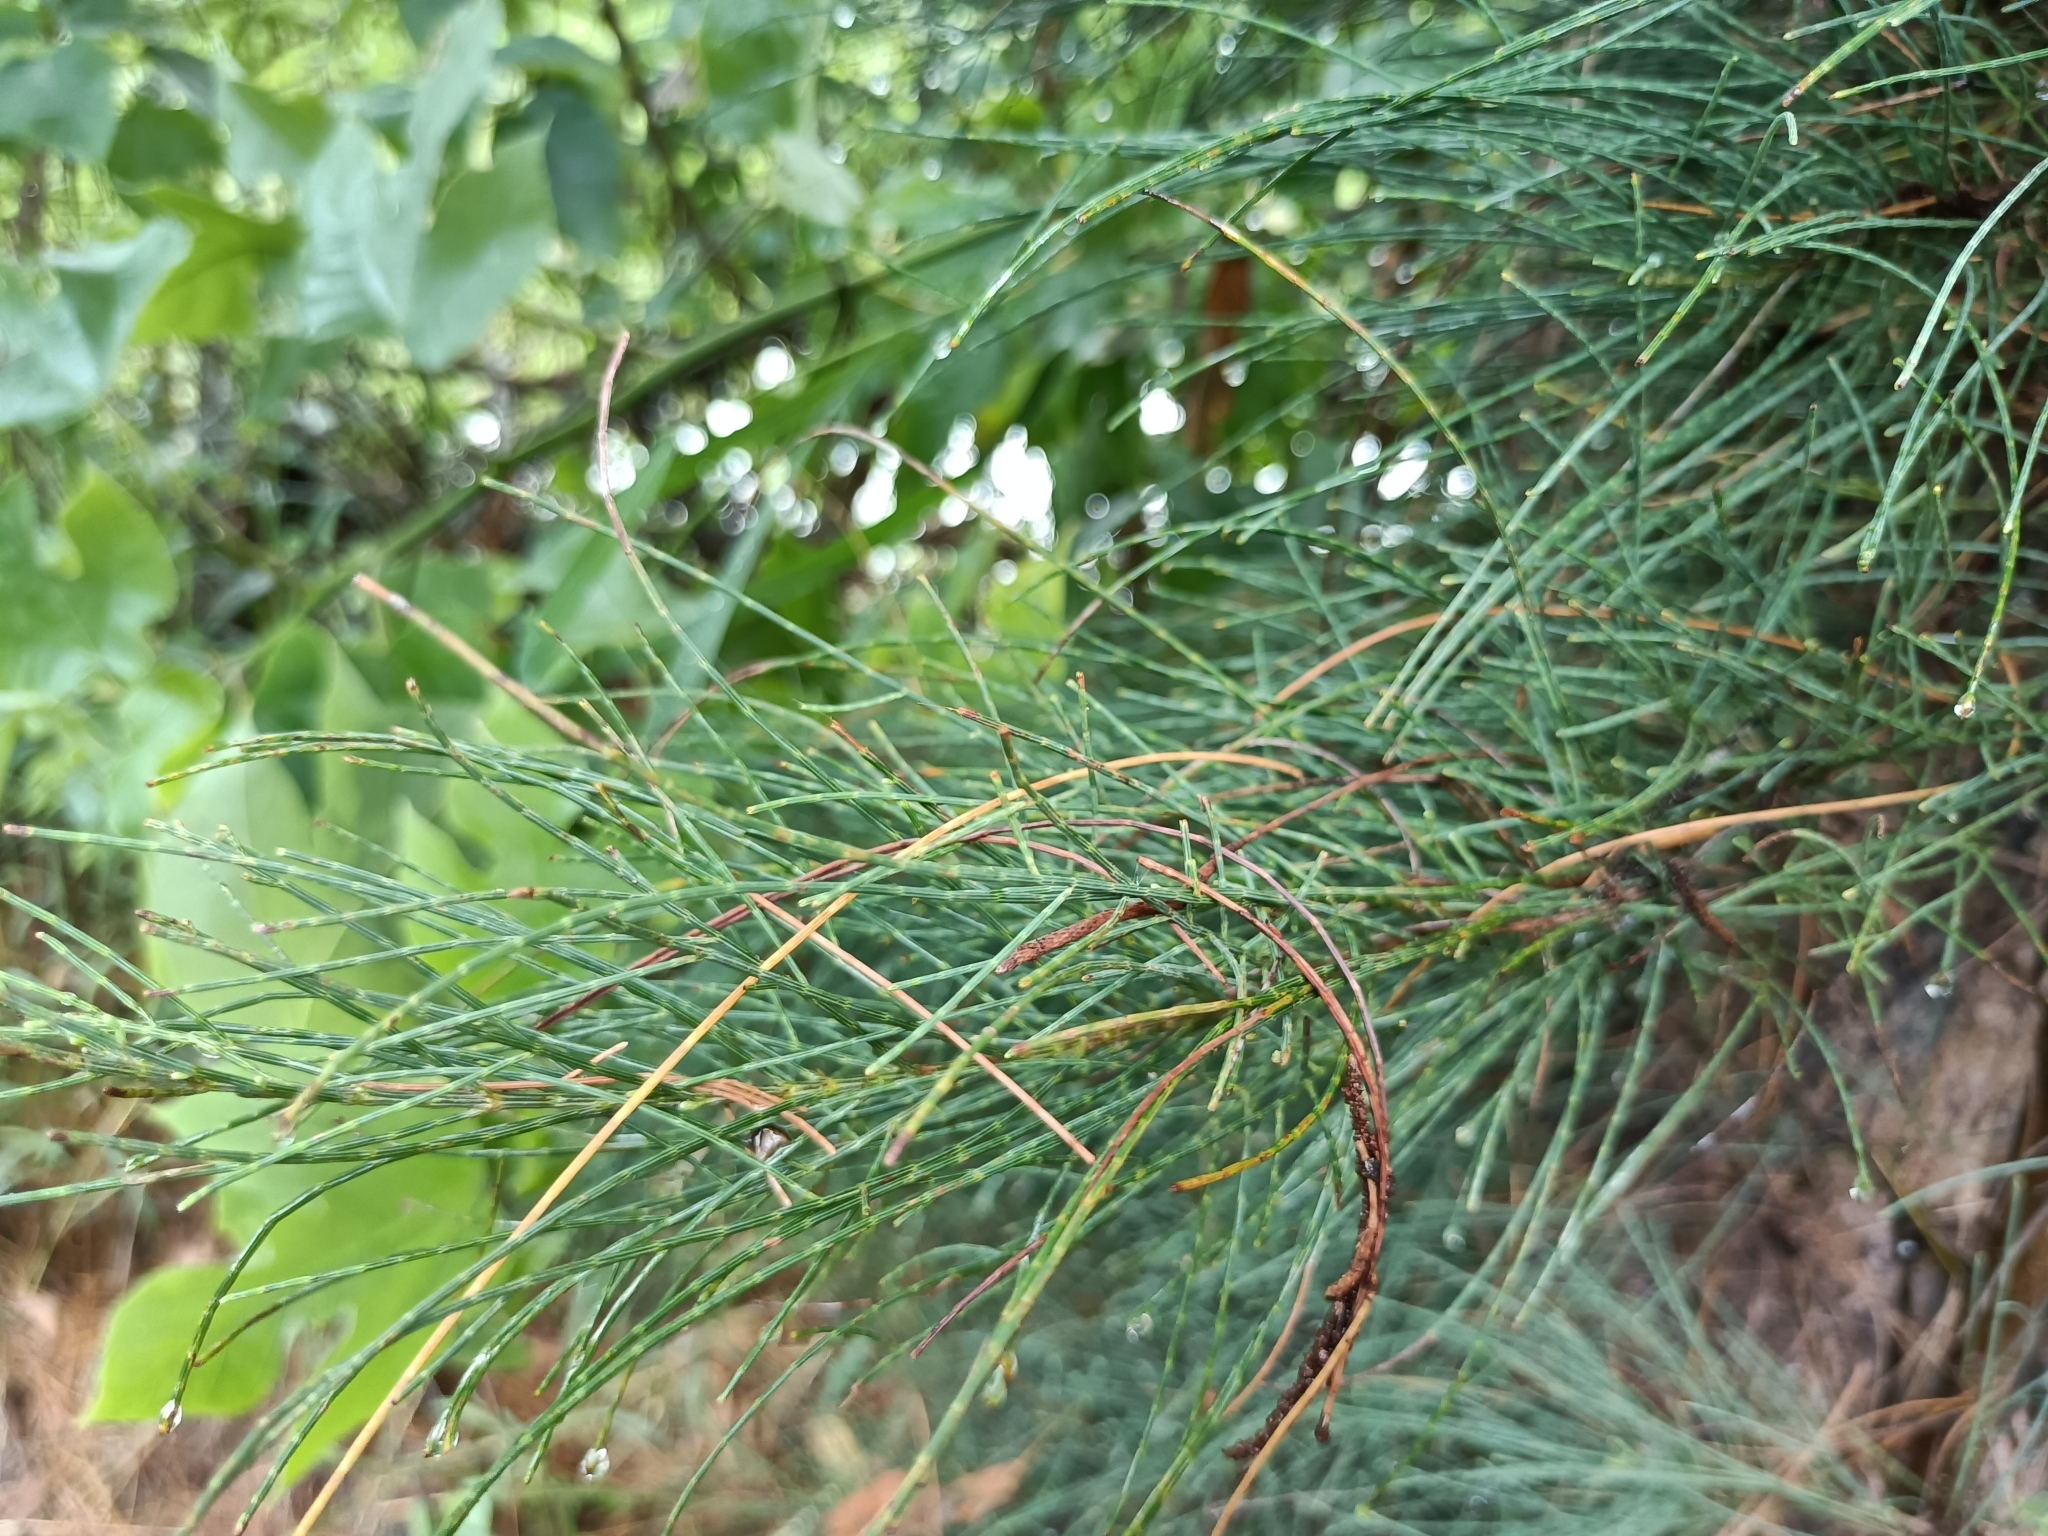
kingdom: Plantae
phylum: Tracheophyta
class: Magnoliopsida
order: Fagales
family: Casuarinaceae
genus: Casuarina
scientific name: Casuarina equisetifolia
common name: Beach sheoak
